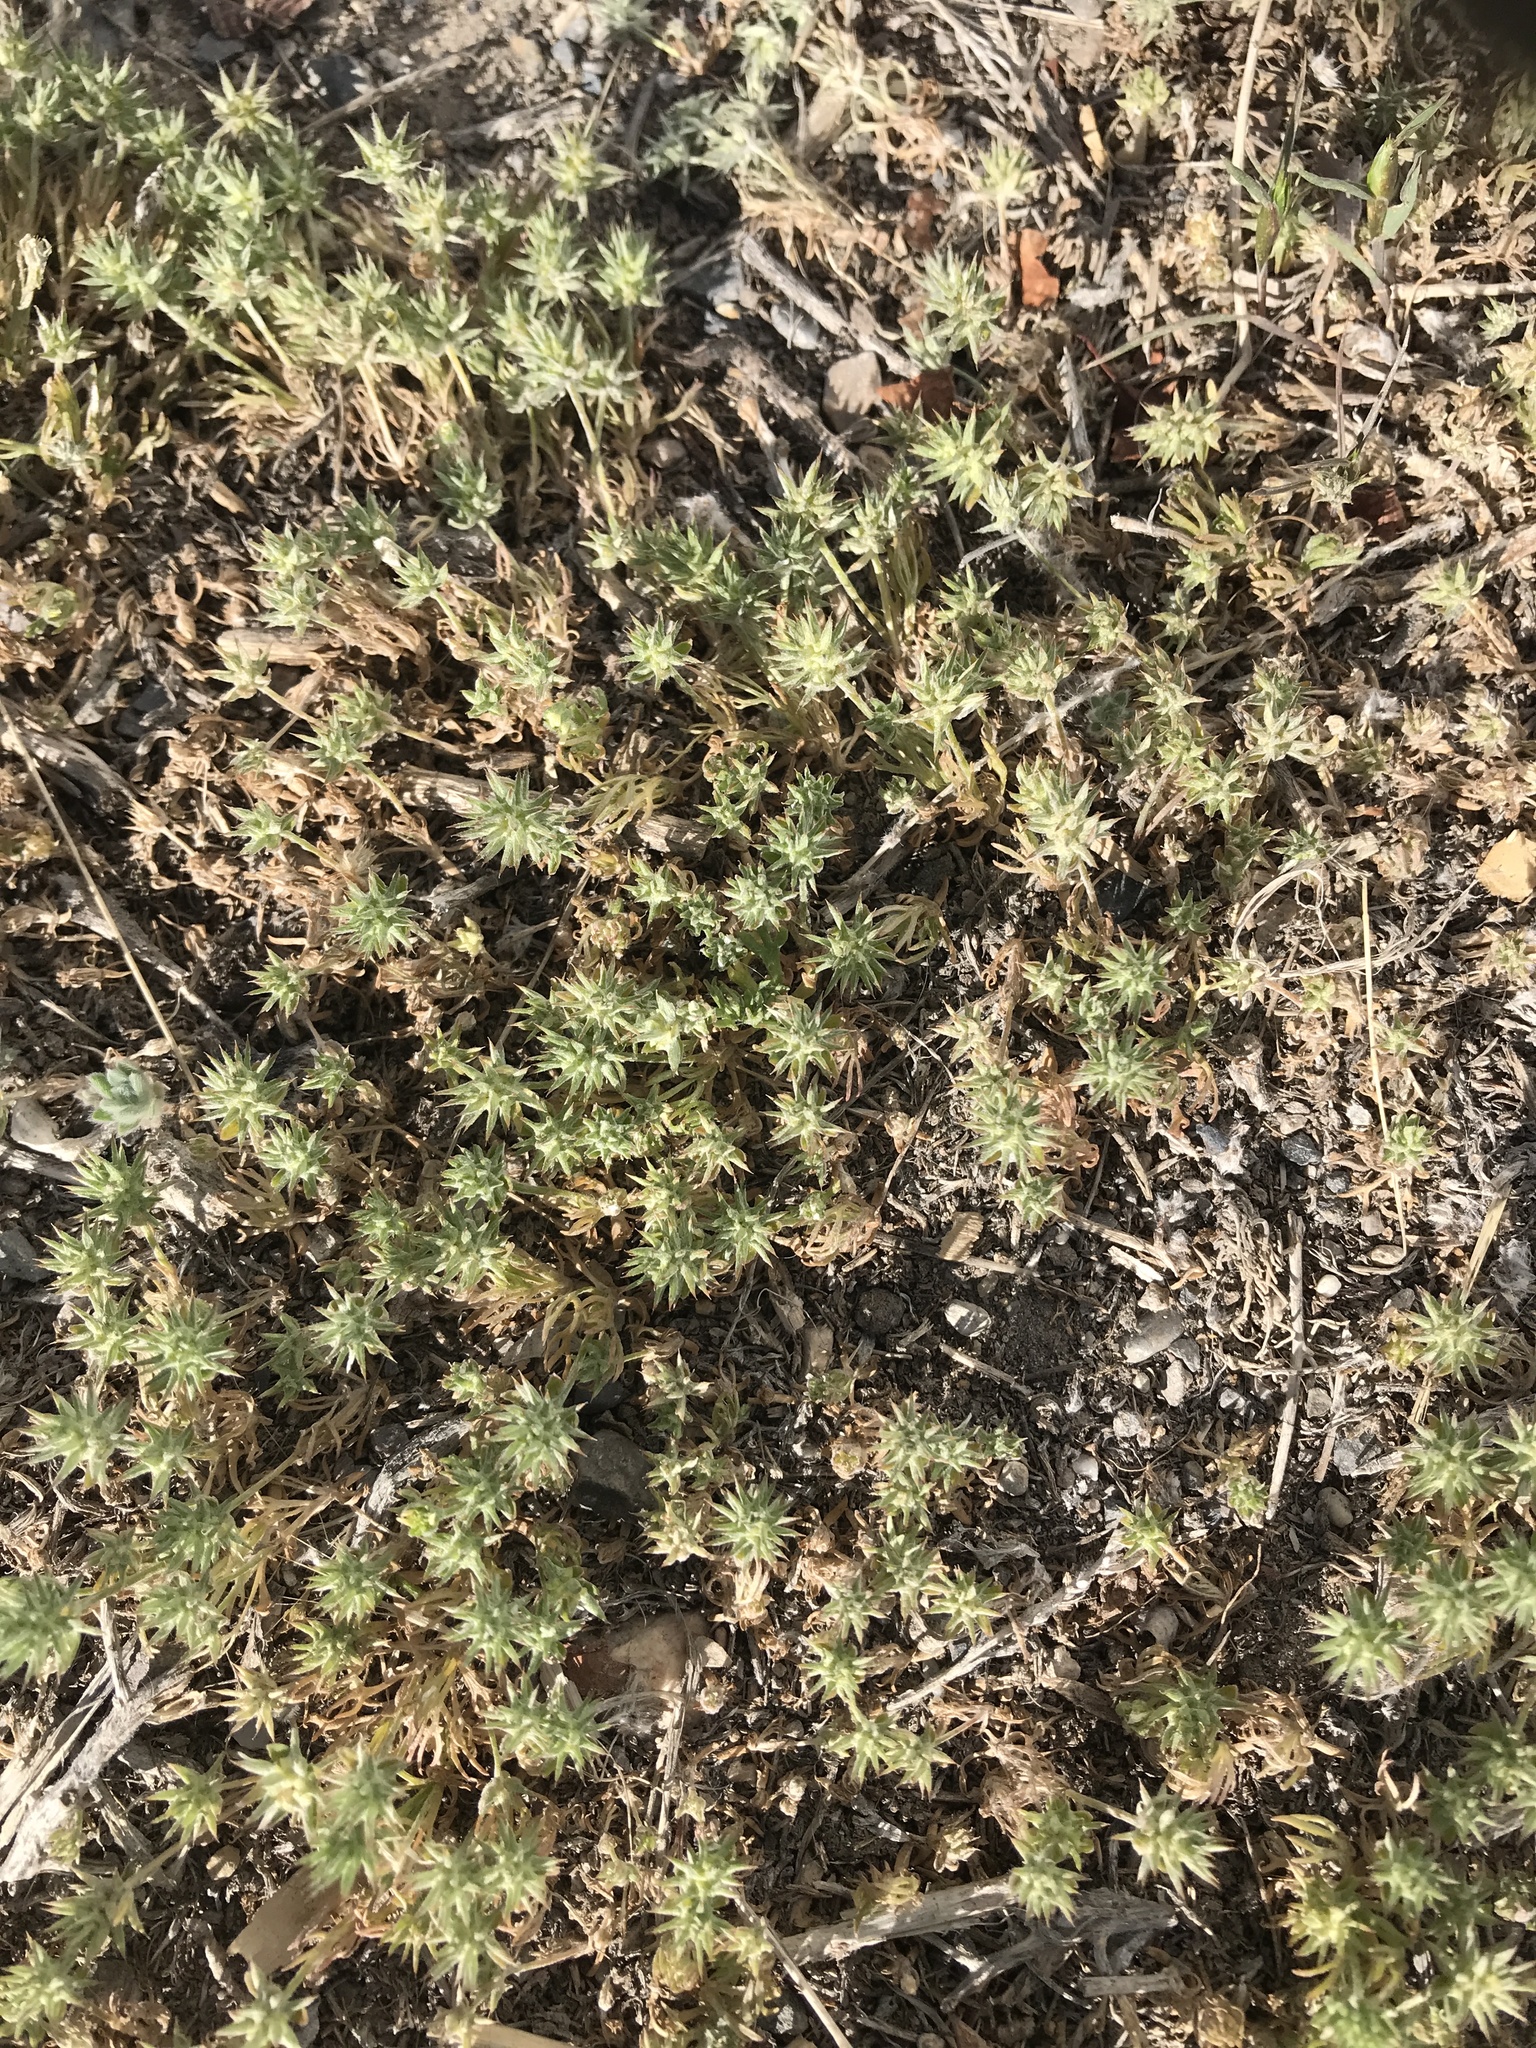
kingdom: Plantae
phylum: Tracheophyta
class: Magnoliopsida
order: Ranunculales
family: Ranunculaceae
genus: Ceratocephala
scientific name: Ceratocephala orthoceras
